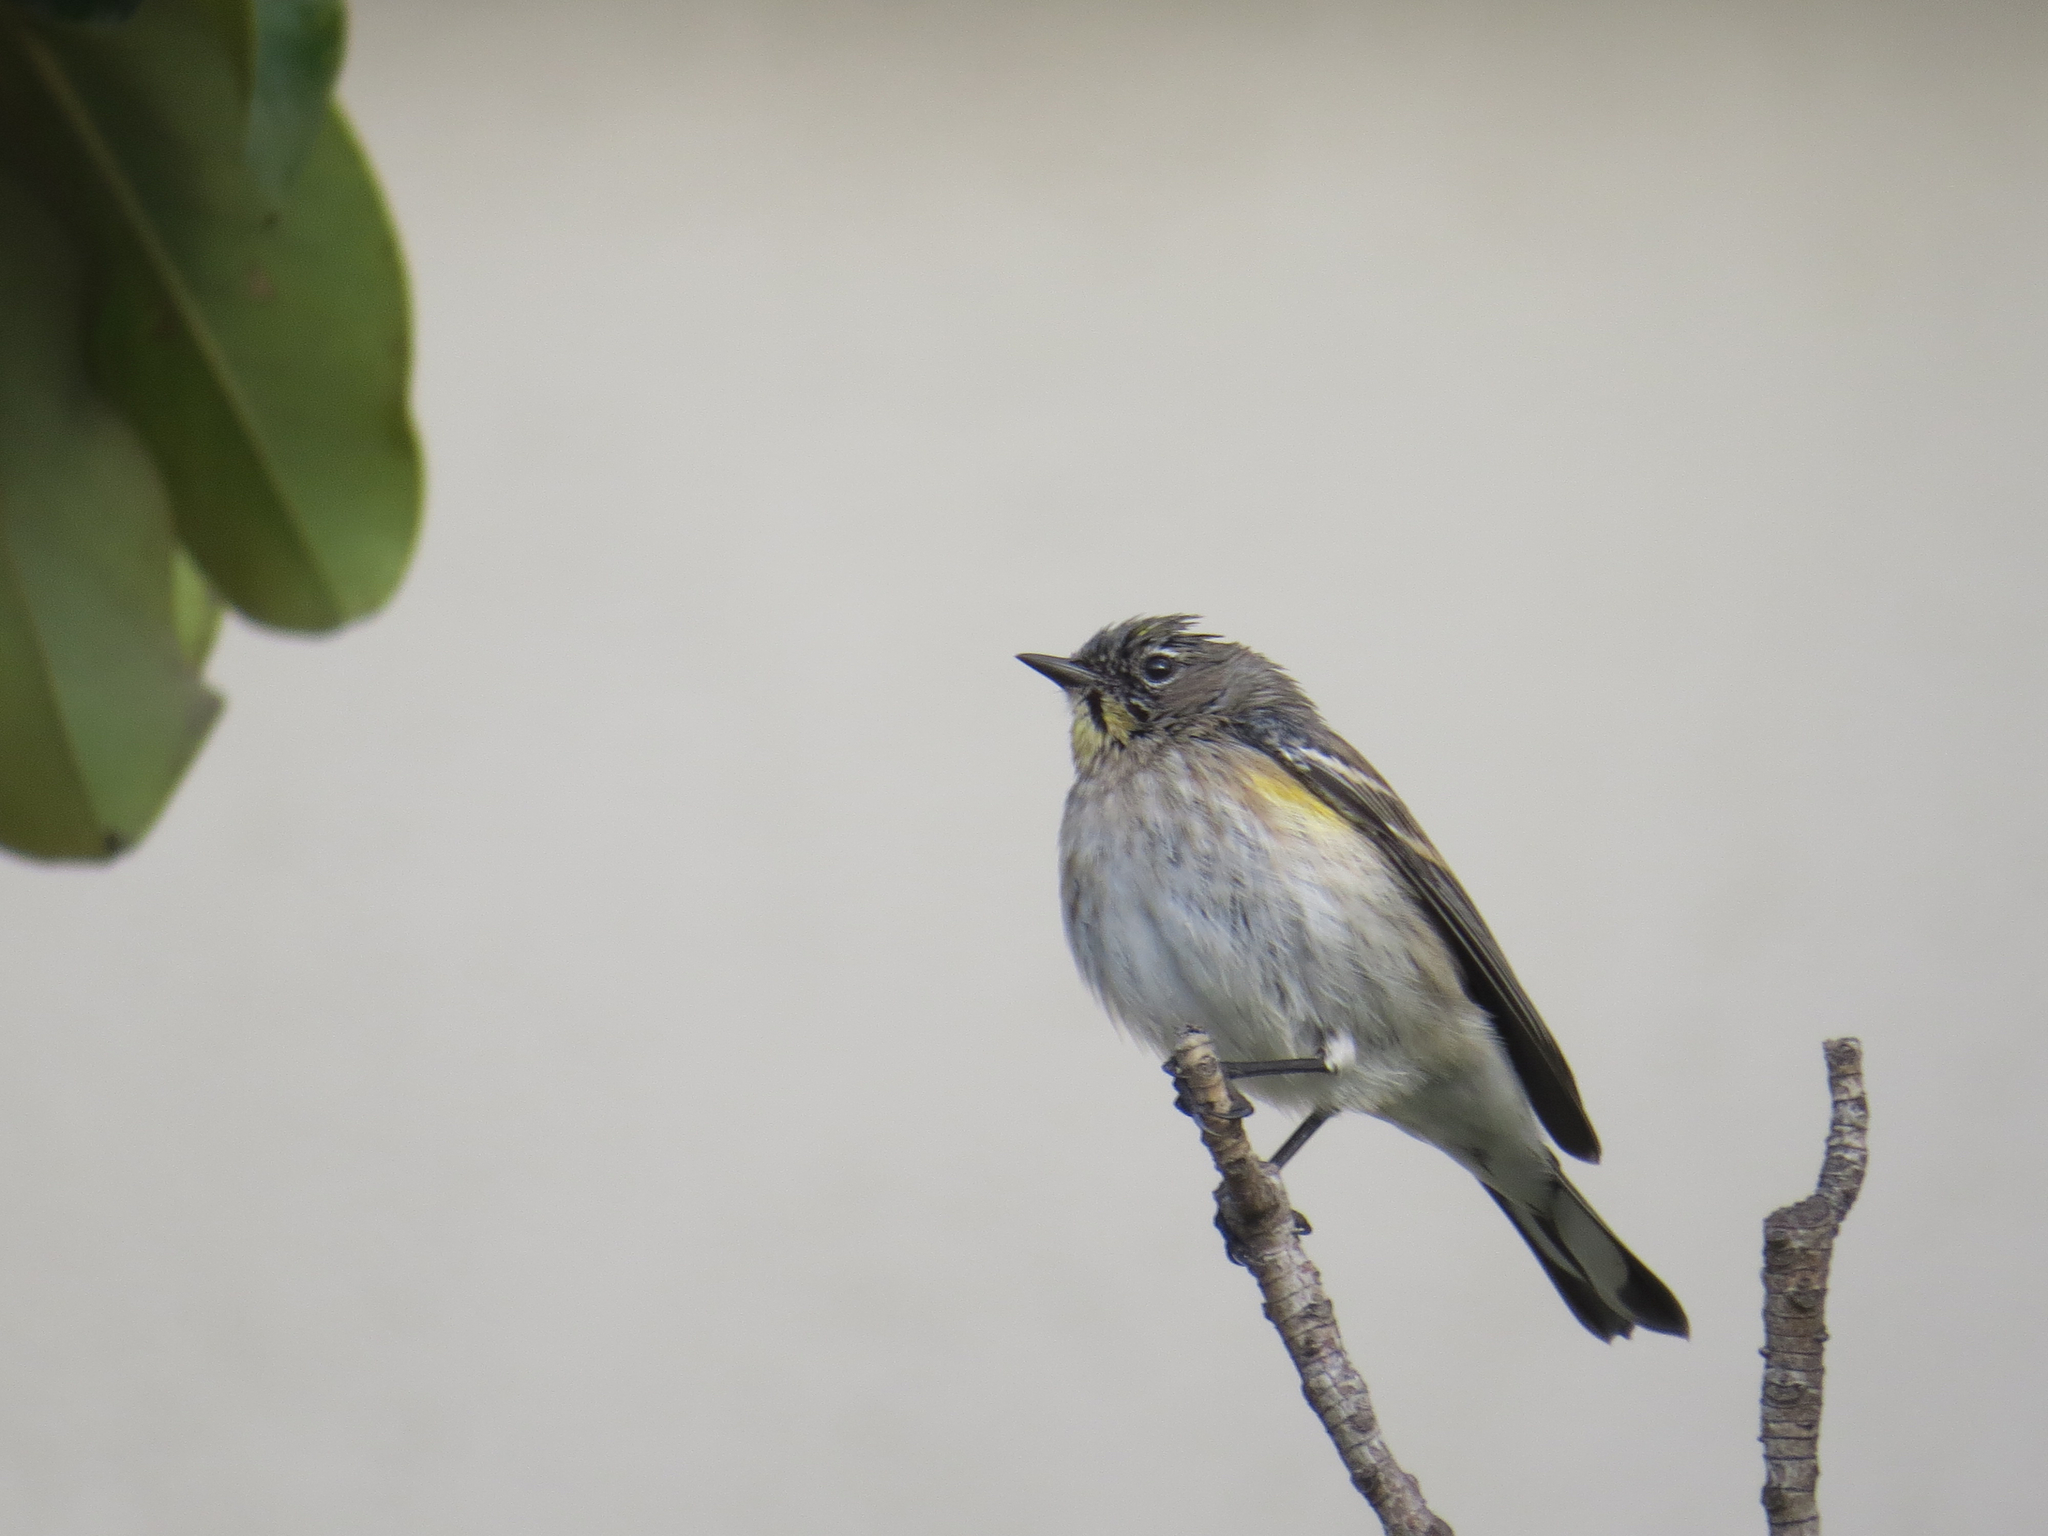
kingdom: Animalia
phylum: Chordata
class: Aves
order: Passeriformes
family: Parulidae
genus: Setophaga
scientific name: Setophaga auduboni
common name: Audubon's warbler
